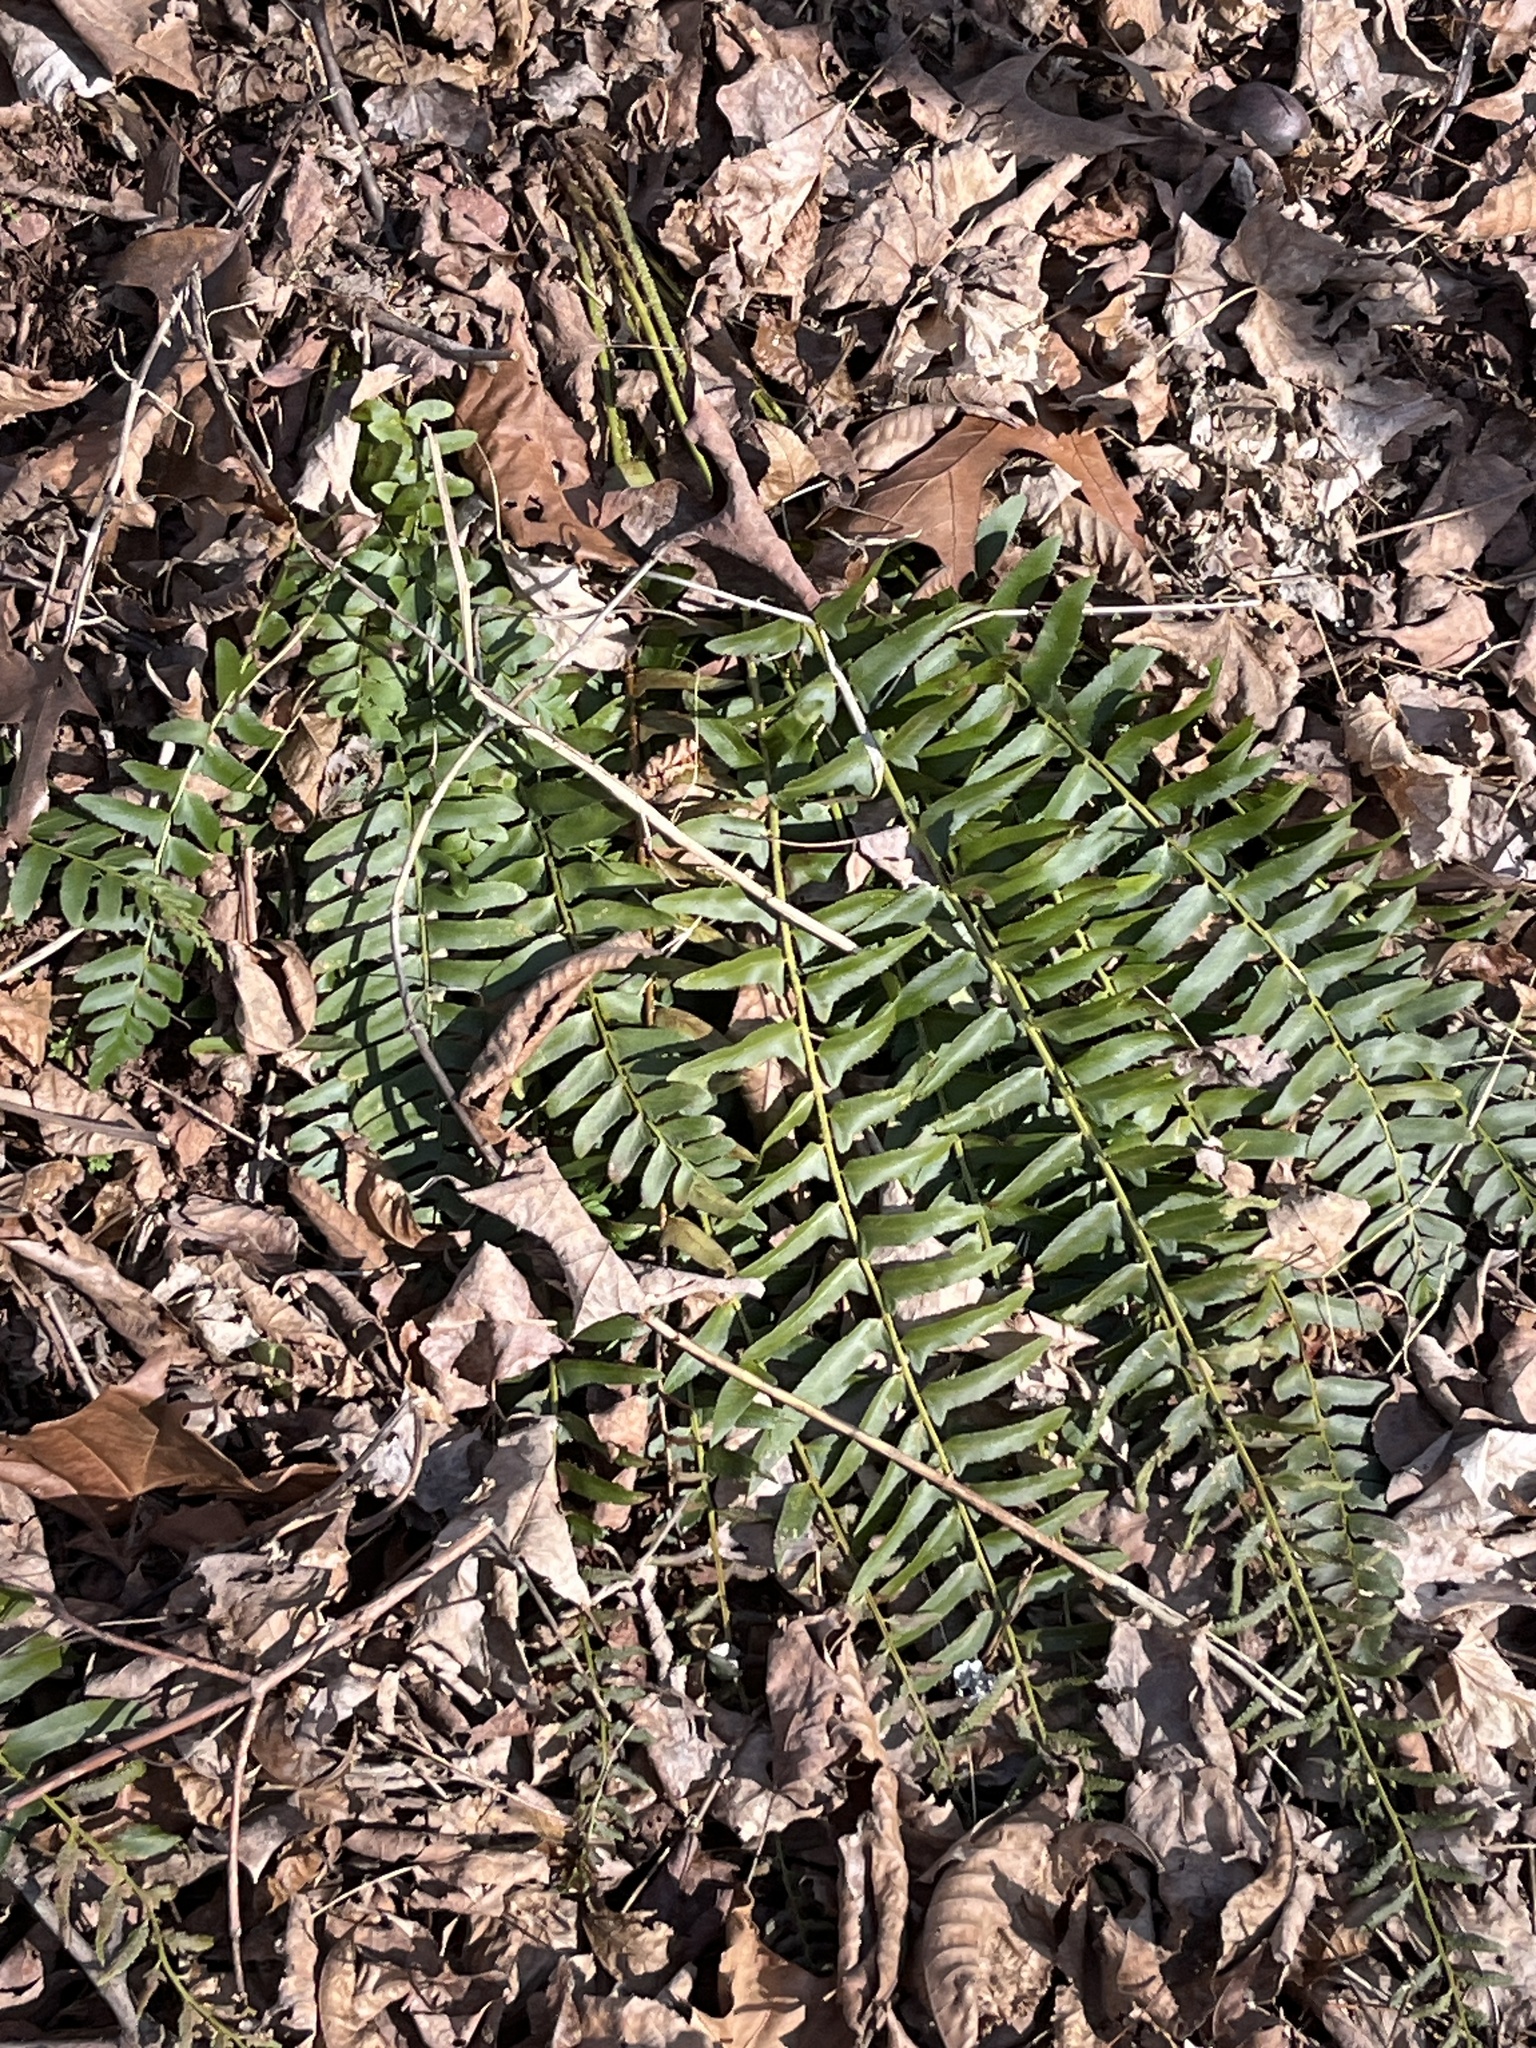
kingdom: Plantae
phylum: Tracheophyta
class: Polypodiopsida
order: Polypodiales
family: Dryopteridaceae
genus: Polystichum
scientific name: Polystichum acrostichoides
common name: Christmas fern
